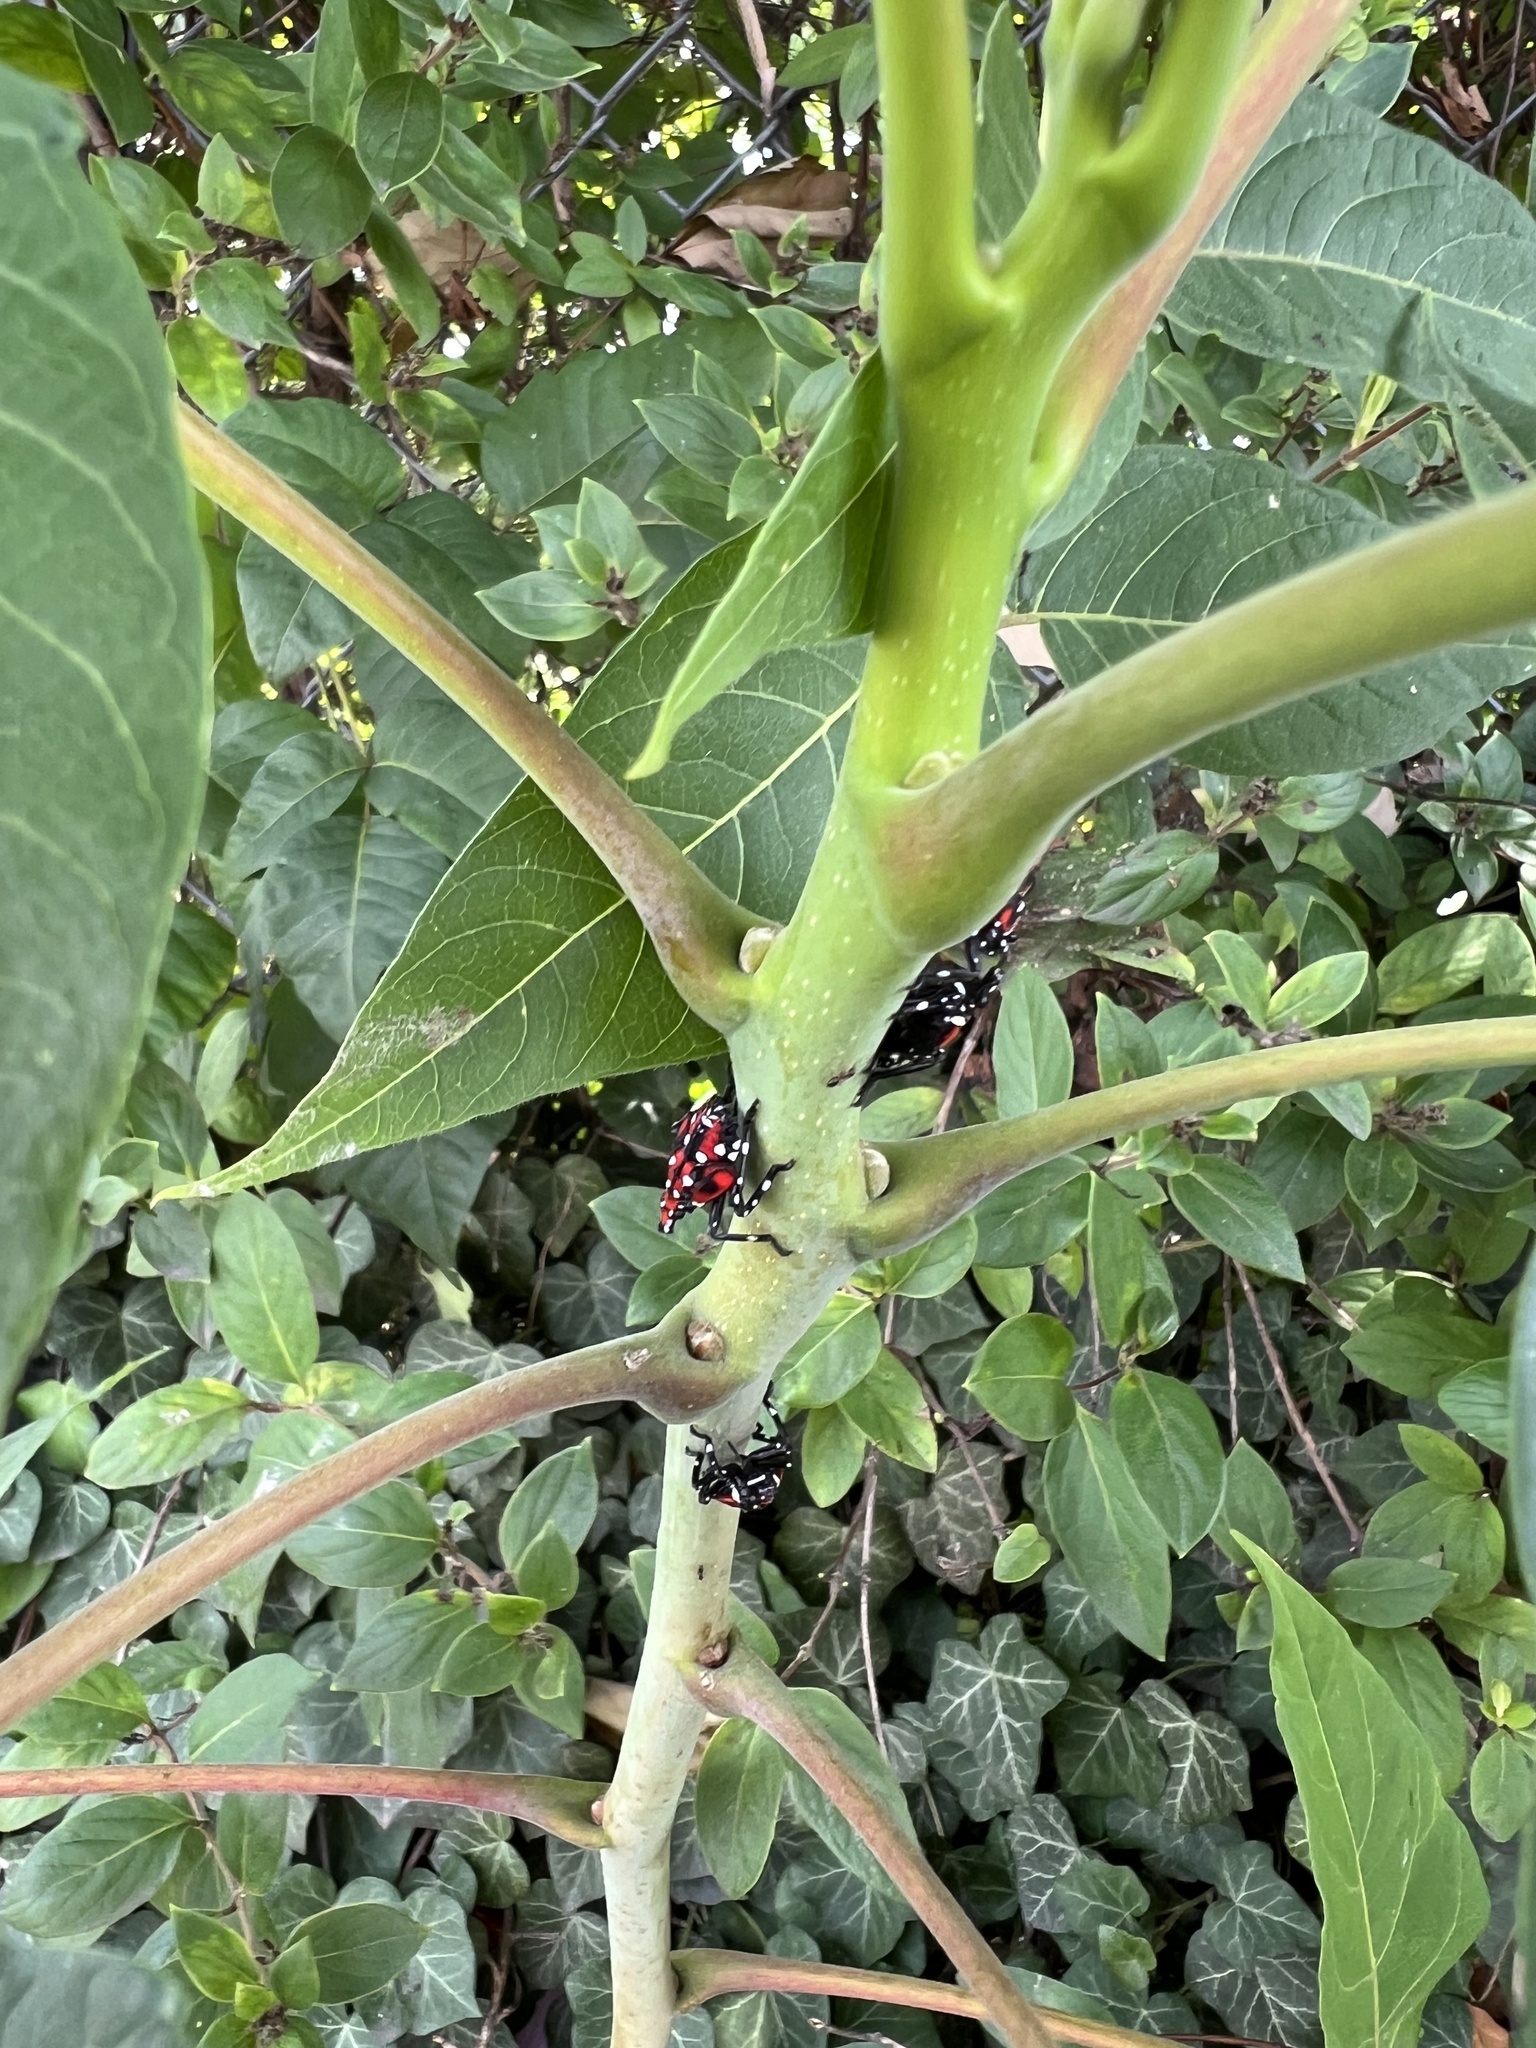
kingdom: Animalia
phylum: Arthropoda
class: Insecta
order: Hemiptera
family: Fulgoridae
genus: Lycorma
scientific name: Lycorma delicatula
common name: Spotted lanternfly
